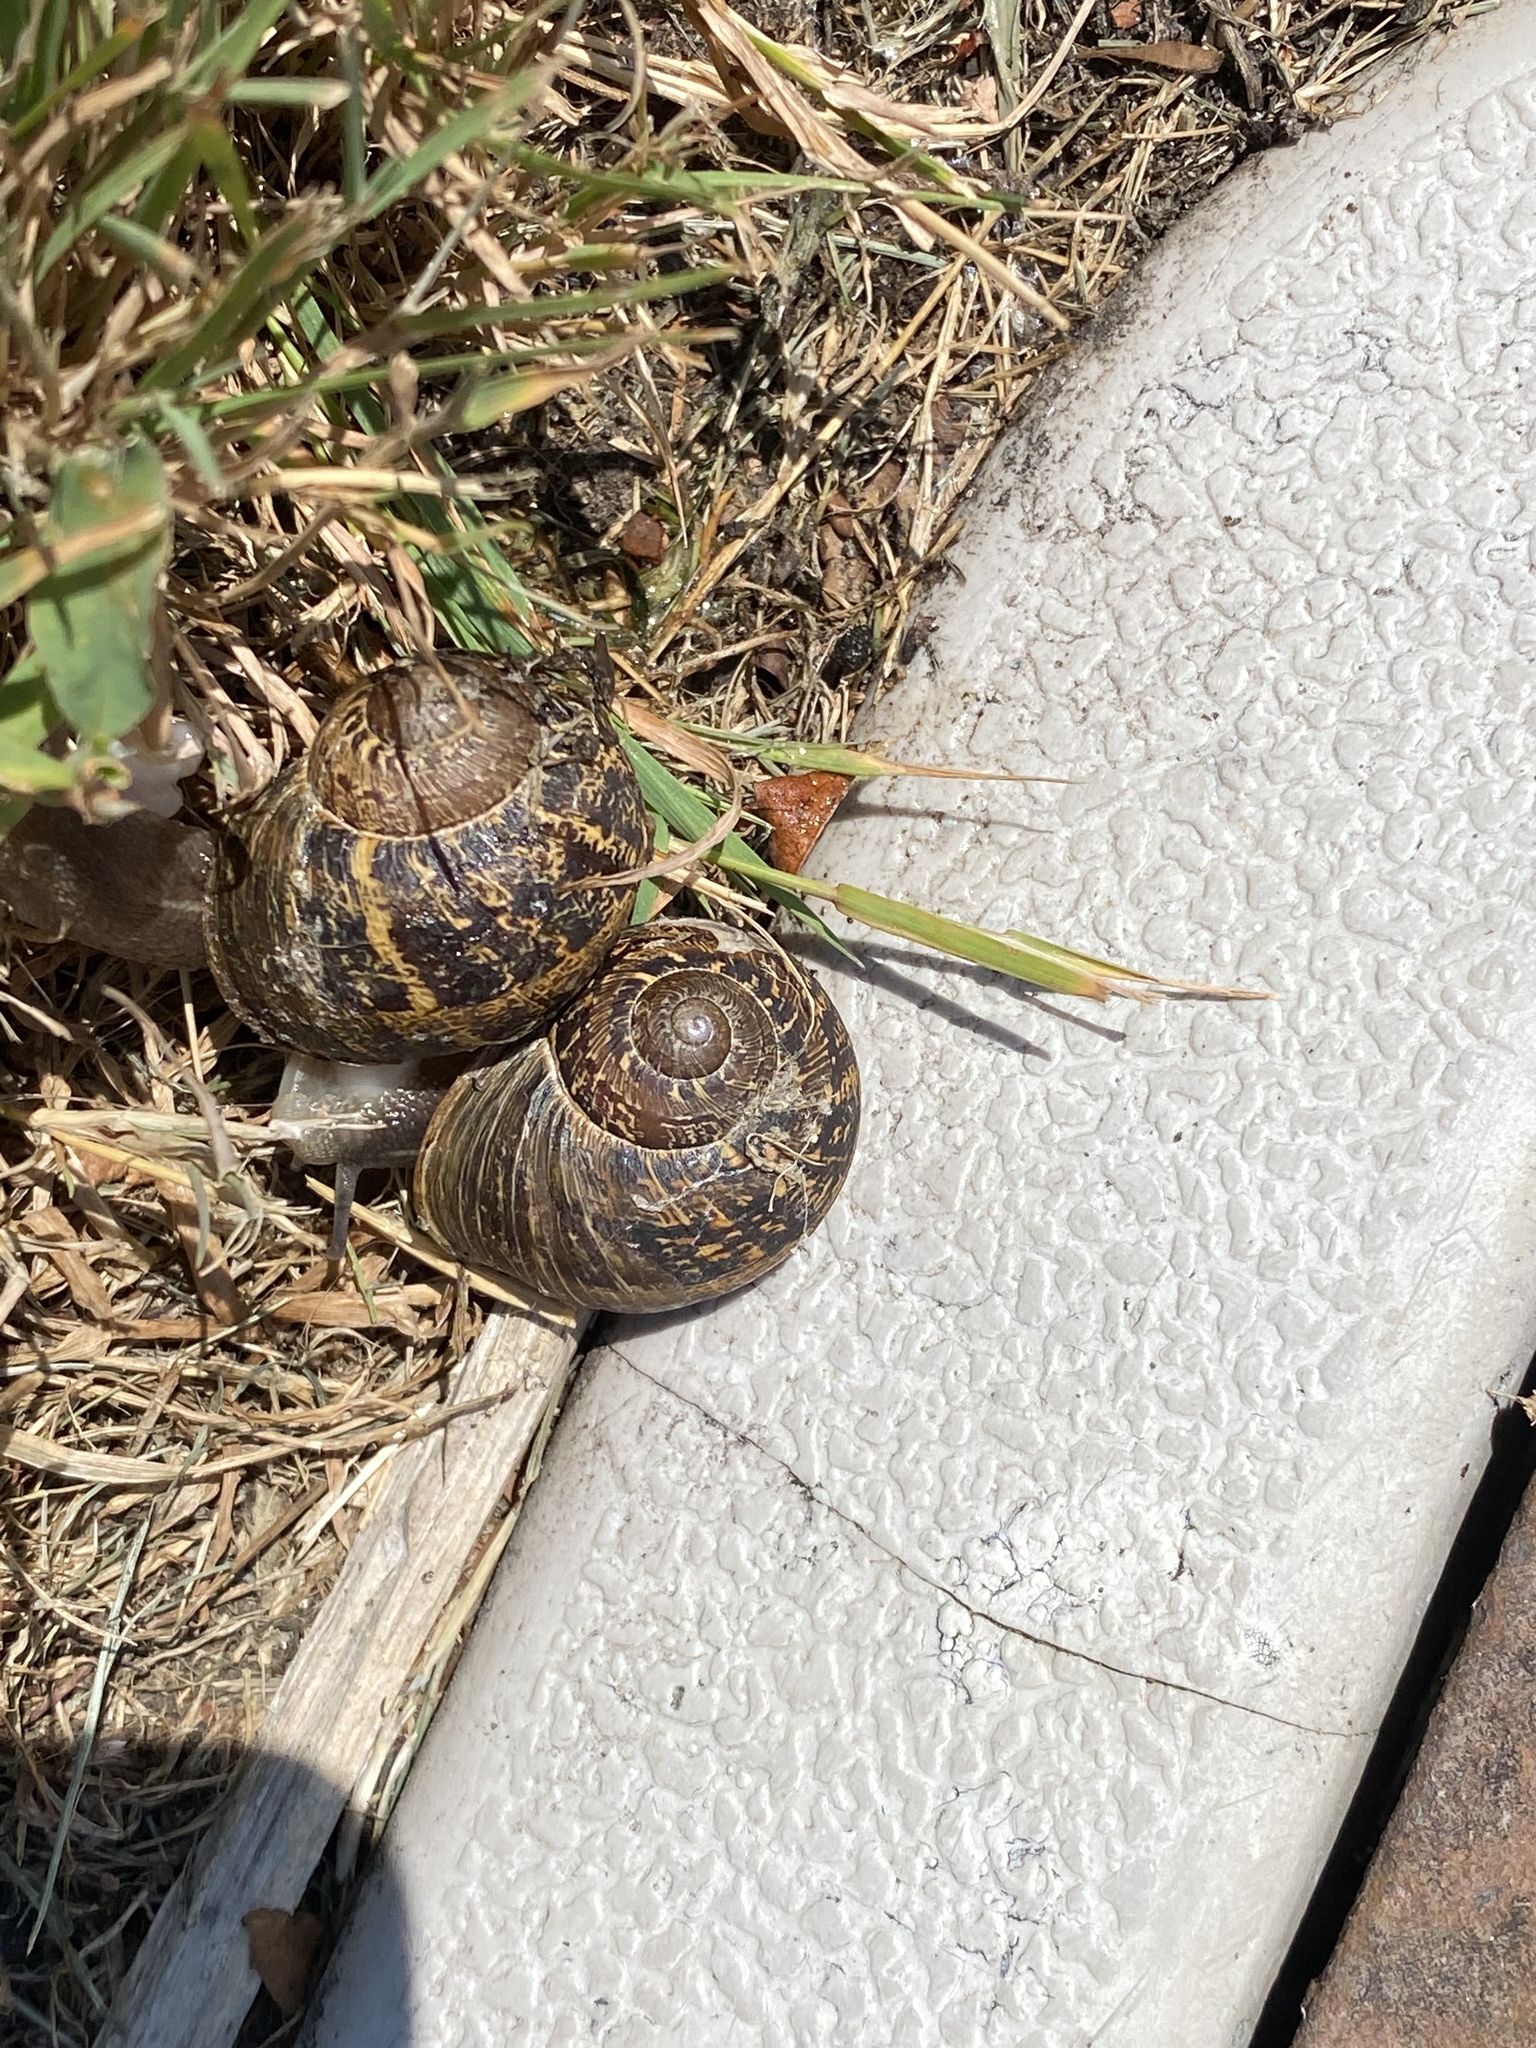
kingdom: Animalia
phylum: Mollusca
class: Gastropoda
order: Stylommatophora
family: Helicidae
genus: Cornu
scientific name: Cornu aspersum
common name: Brown garden snail
